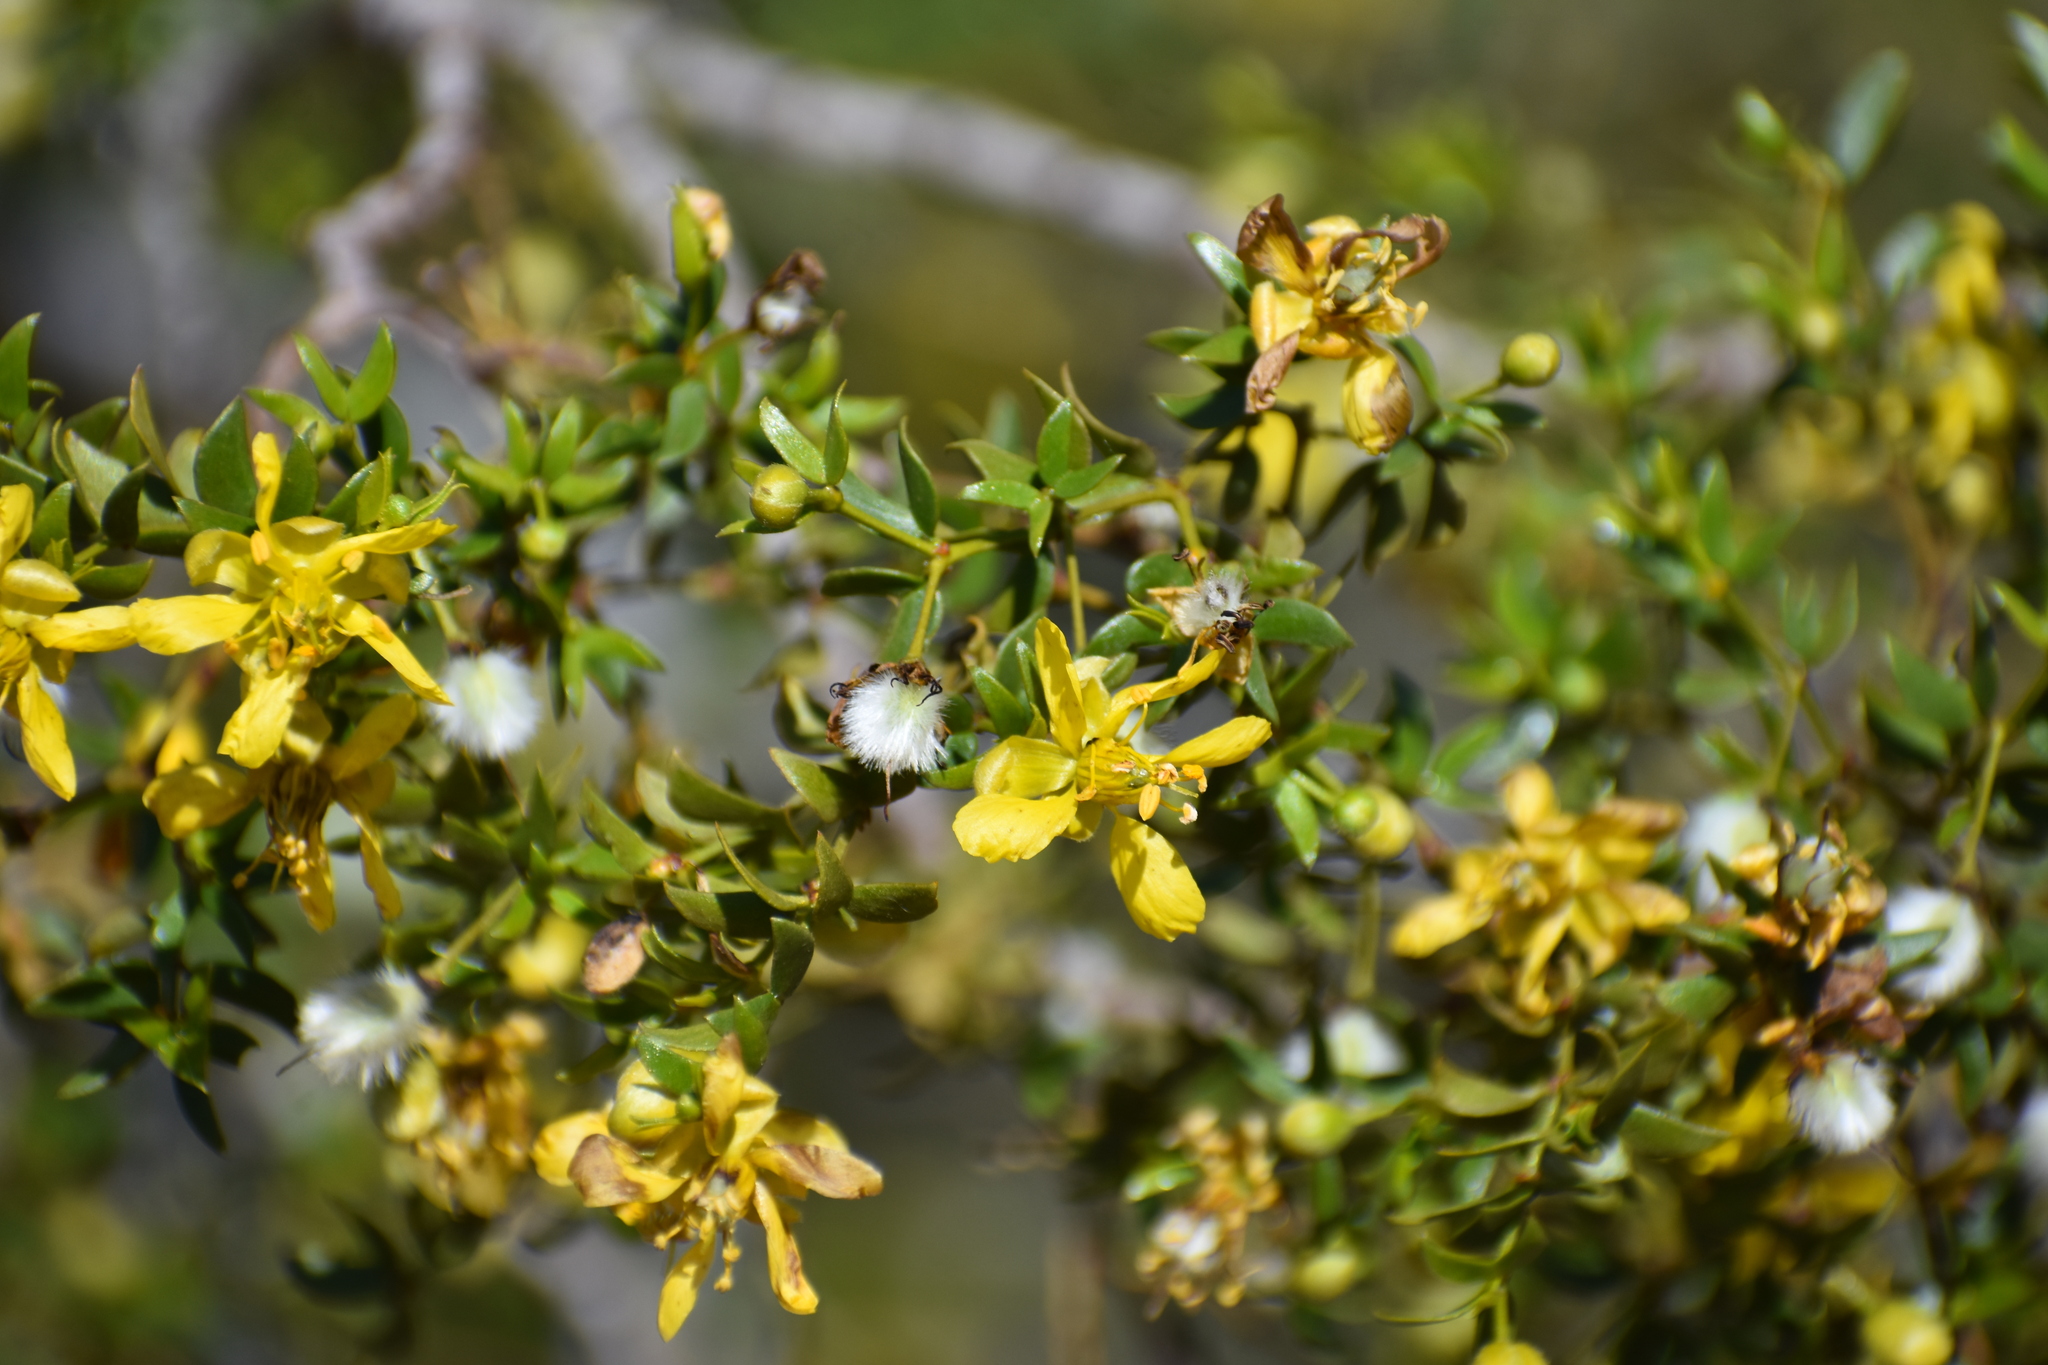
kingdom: Plantae
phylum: Tracheophyta
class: Magnoliopsida
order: Zygophyllales
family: Zygophyllaceae
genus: Larrea
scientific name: Larrea tridentata
